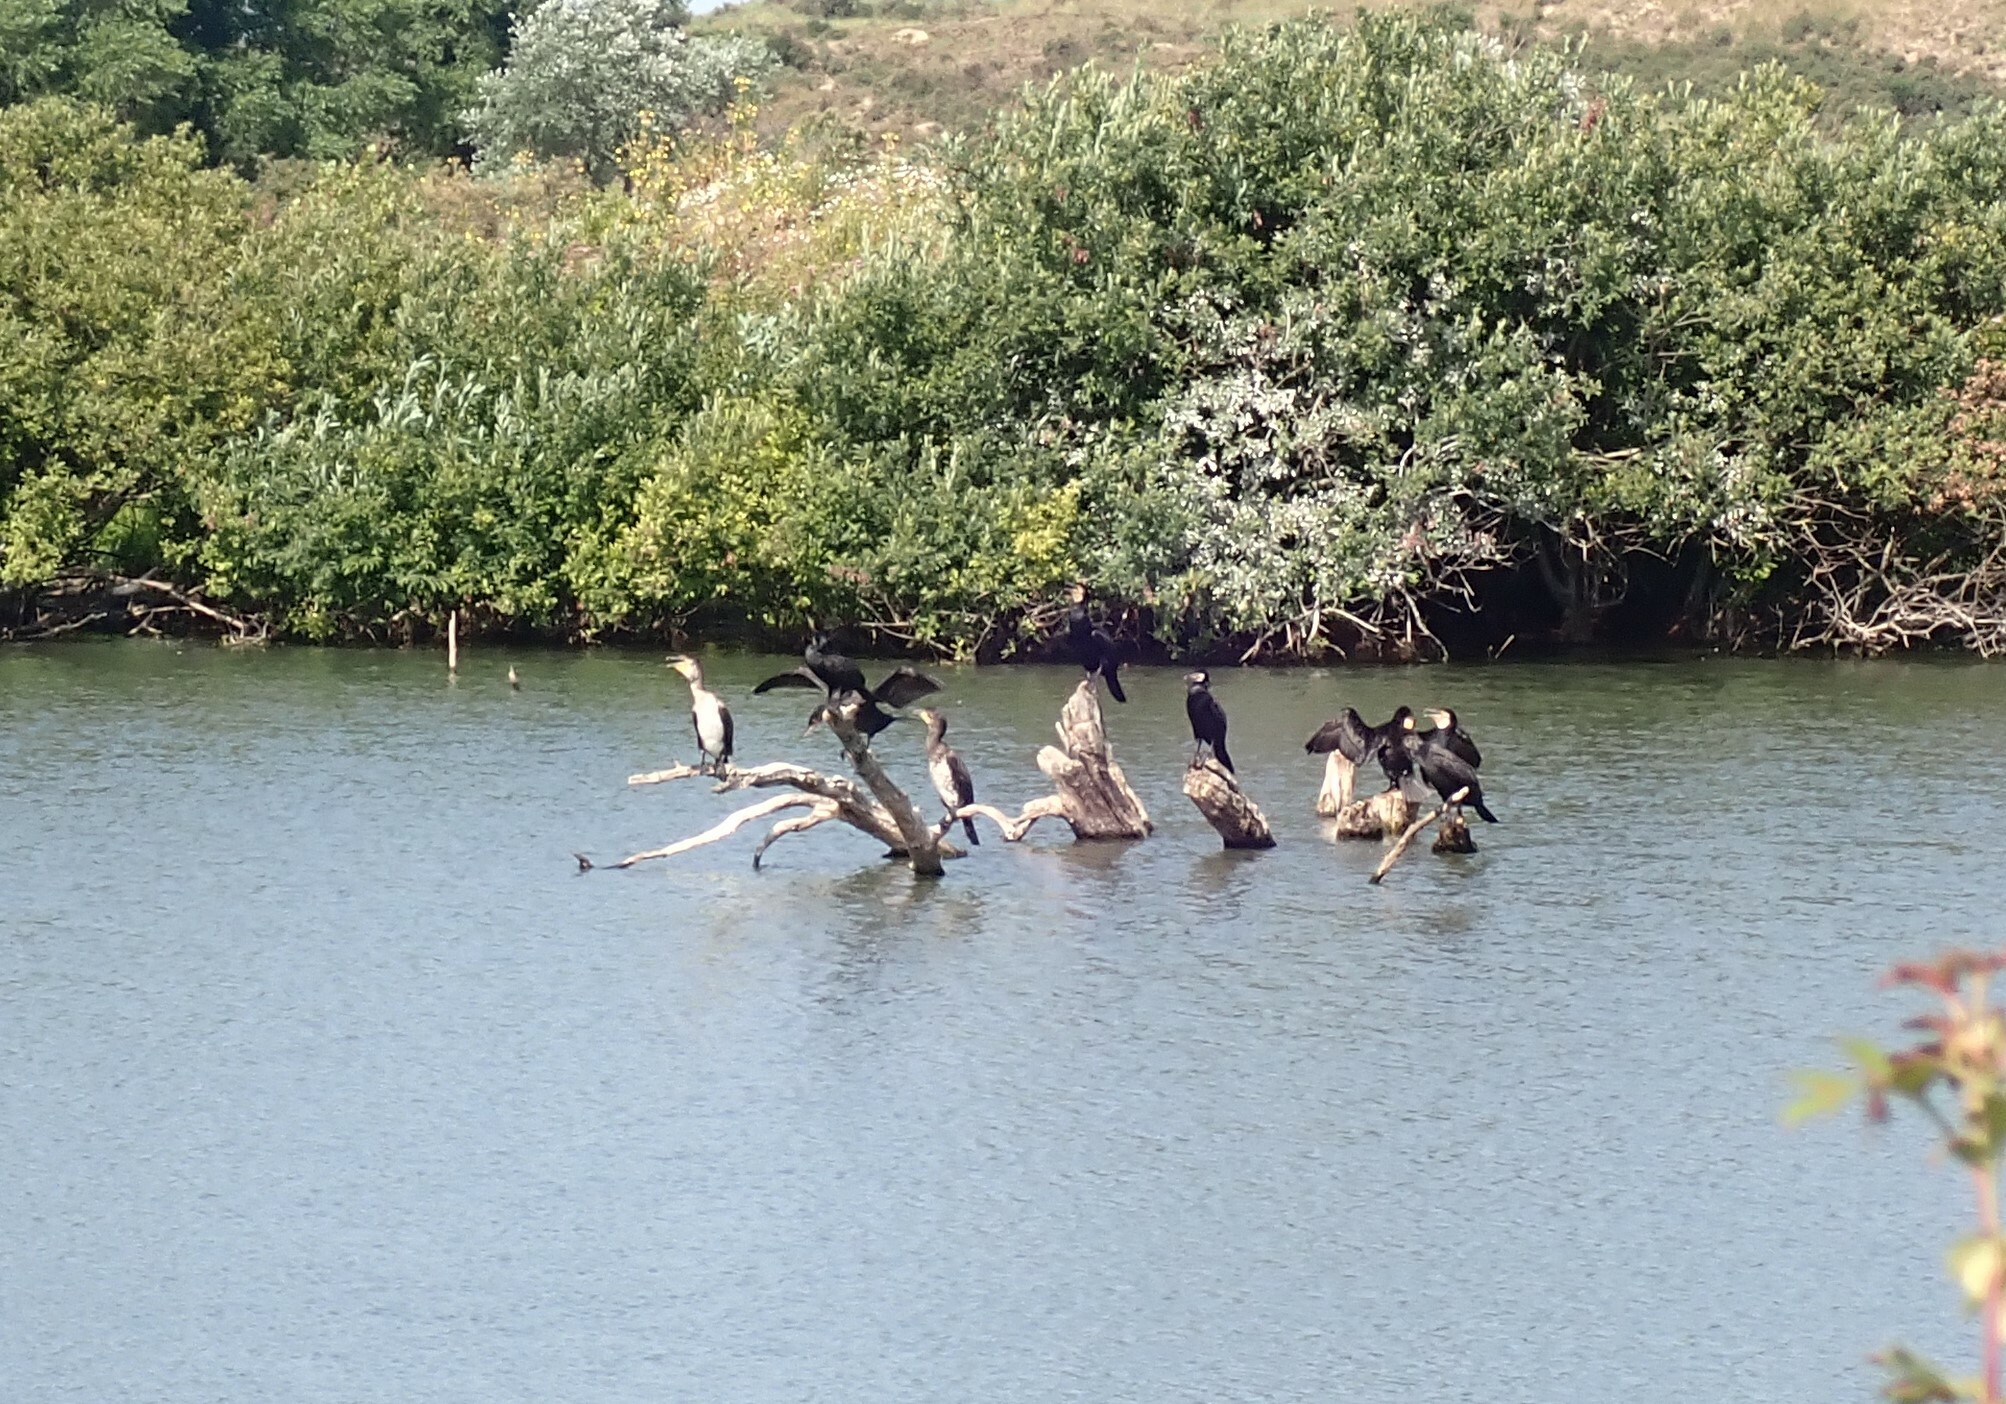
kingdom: Animalia
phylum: Chordata
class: Aves
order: Suliformes
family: Phalacrocoracidae
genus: Phalacrocorax
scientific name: Phalacrocorax carbo
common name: Great cormorant
